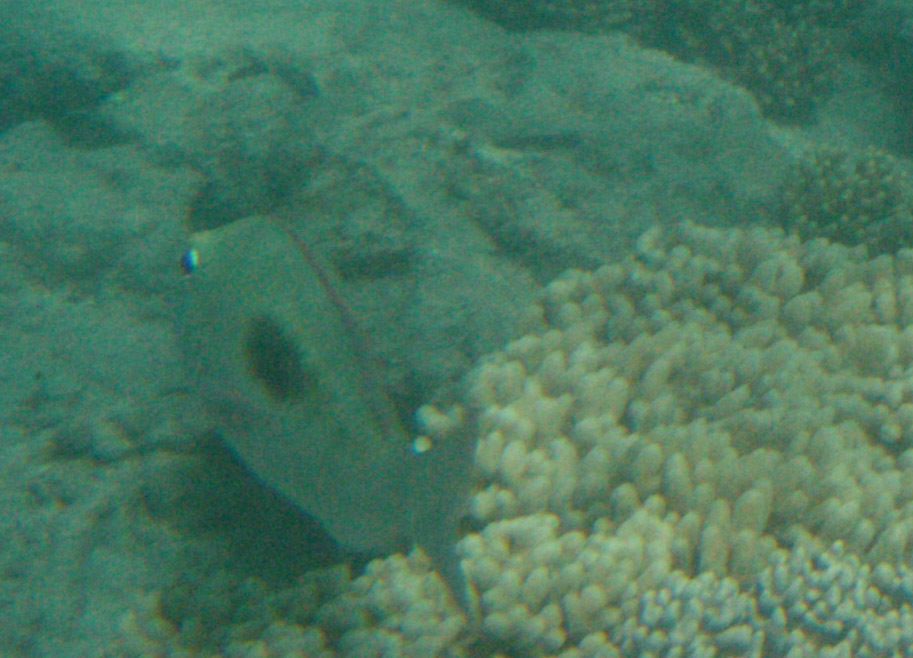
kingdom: Animalia
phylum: Chordata
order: Perciformes
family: Lethrinidae
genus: Lethrinus
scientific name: Lethrinus harak
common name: Blackspot emperor
